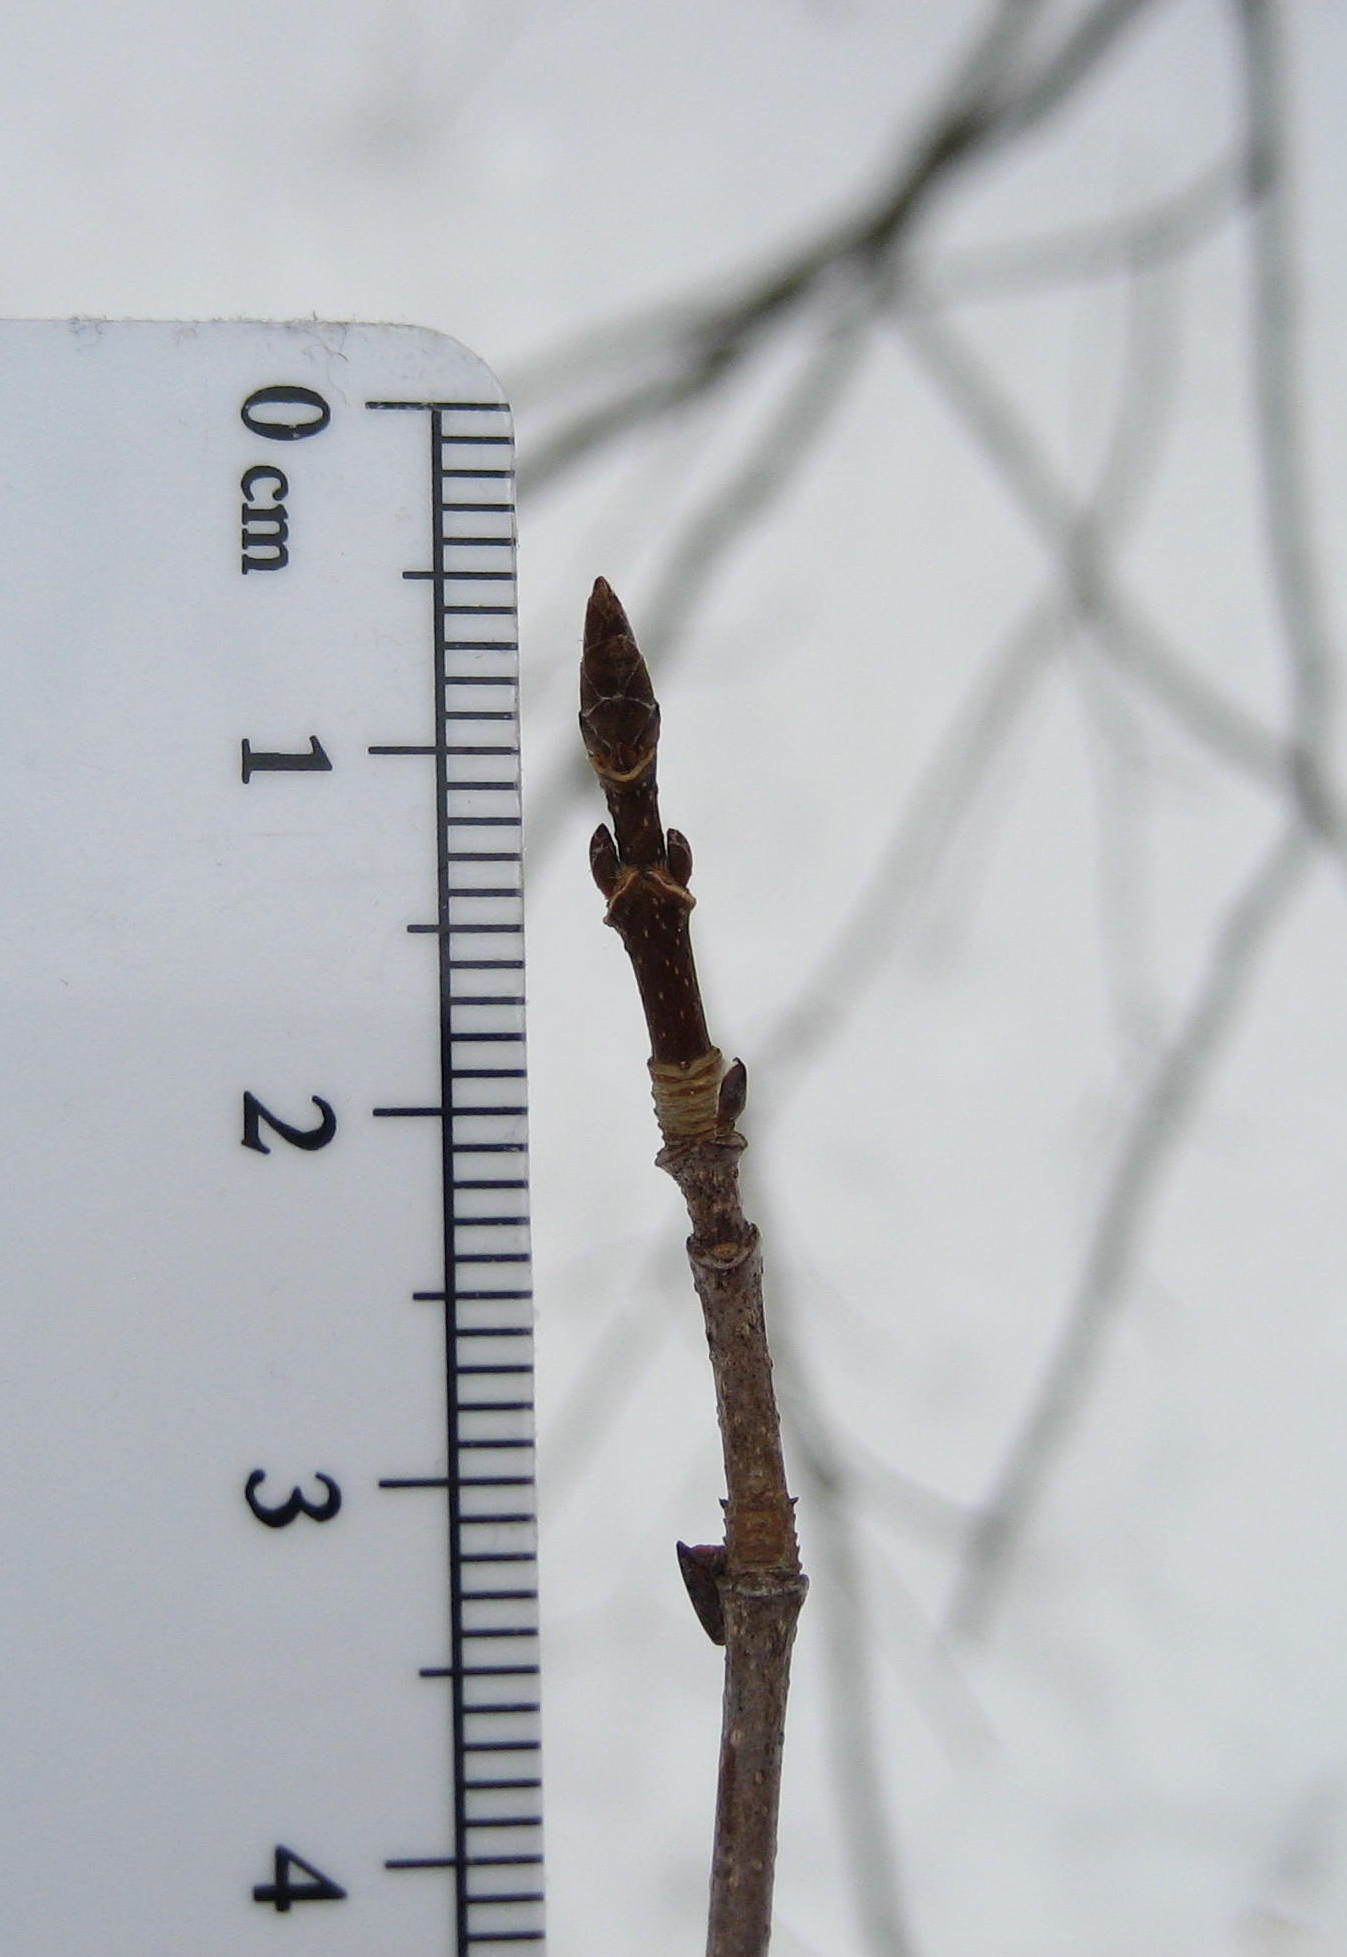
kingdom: Plantae
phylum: Tracheophyta
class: Magnoliopsida
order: Sapindales
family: Sapindaceae
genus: Acer
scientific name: Acer saccharum
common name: Sugar maple
